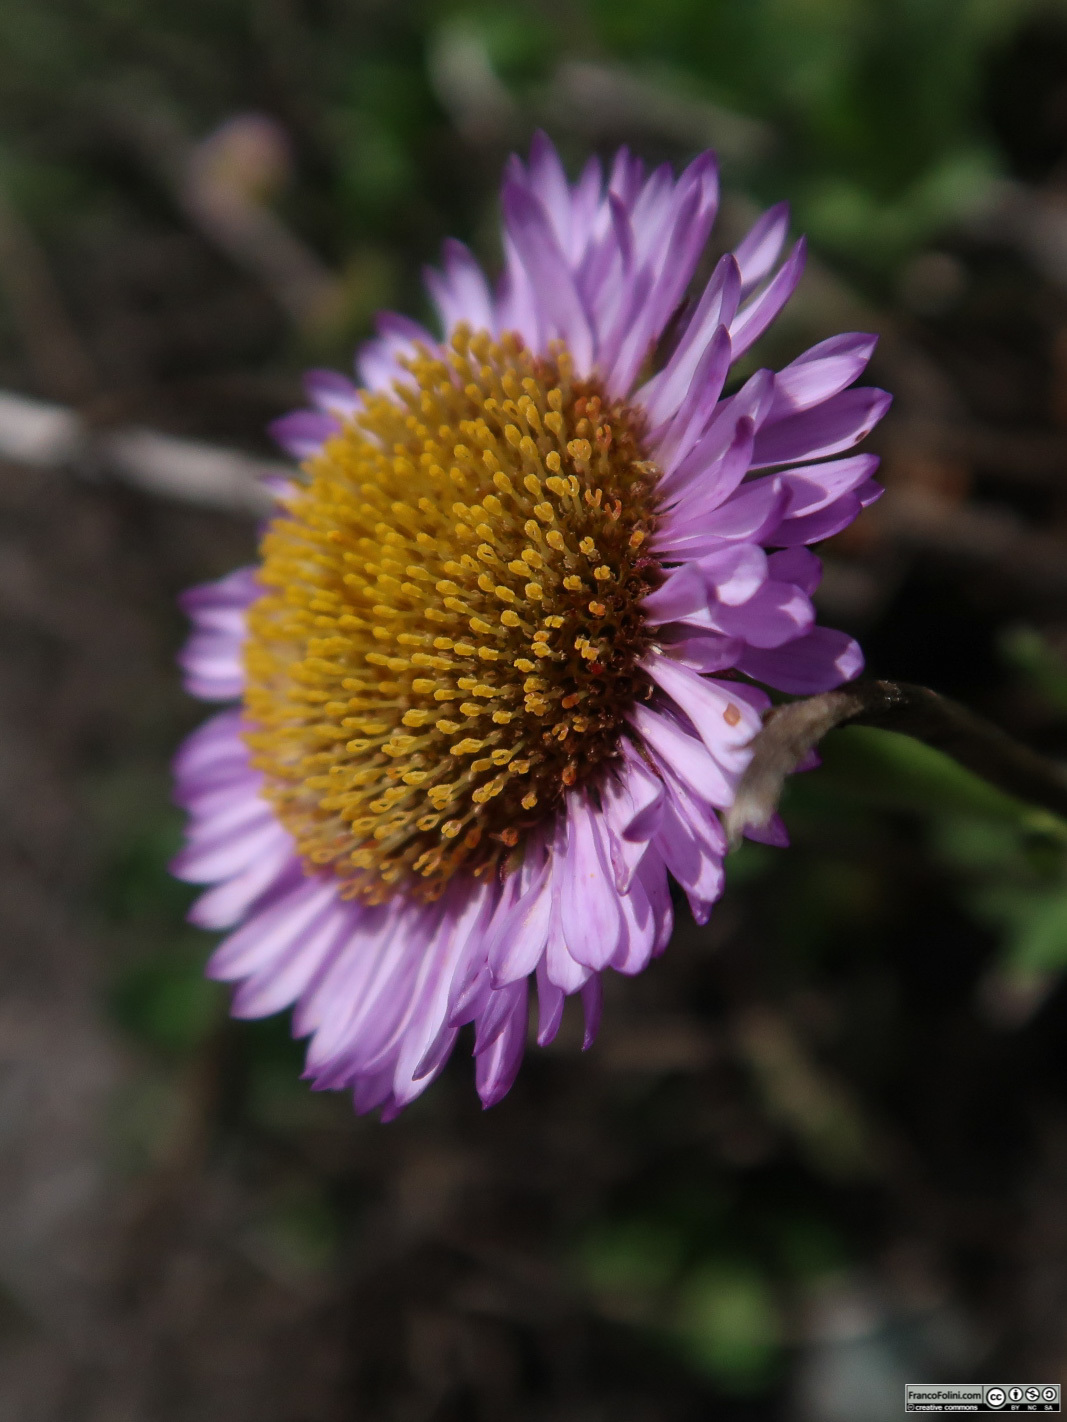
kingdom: Plantae
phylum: Tracheophyta
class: Magnoliopsida
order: Asterales
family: Asteraceae
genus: Erigeron
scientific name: Erigeron glaucus
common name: Seaside daisy
